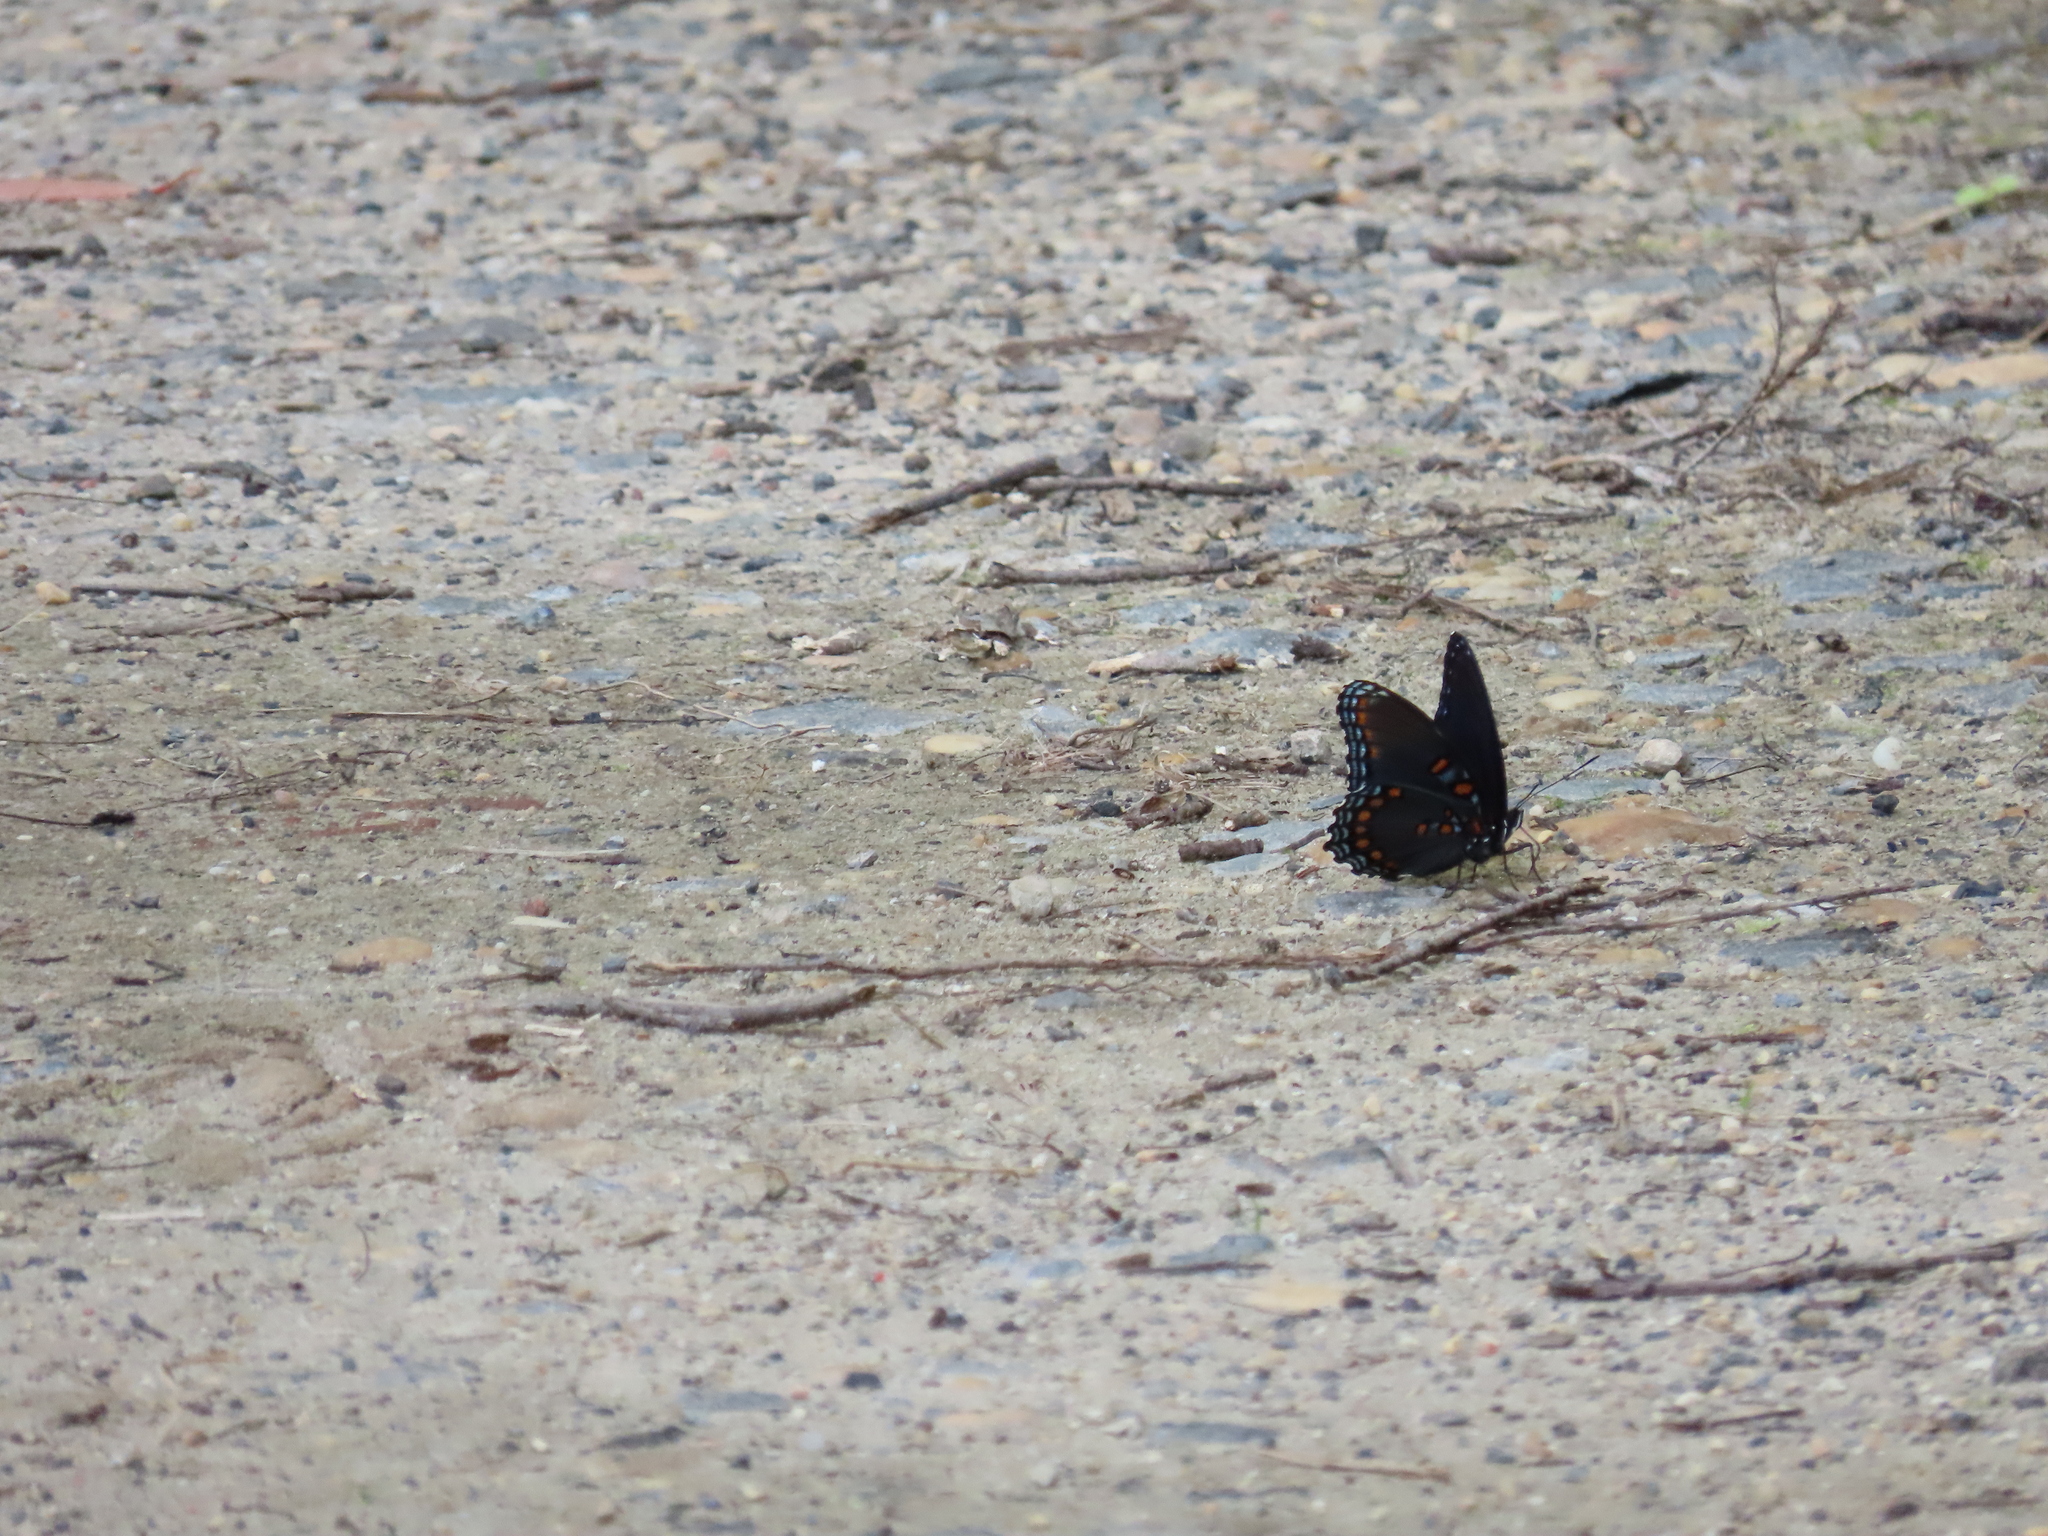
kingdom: Animalia
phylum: Arthropoda
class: Insecta
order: Lepidoptera
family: Nymphalidae
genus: Limenitis
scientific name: Limenitis astyanax
